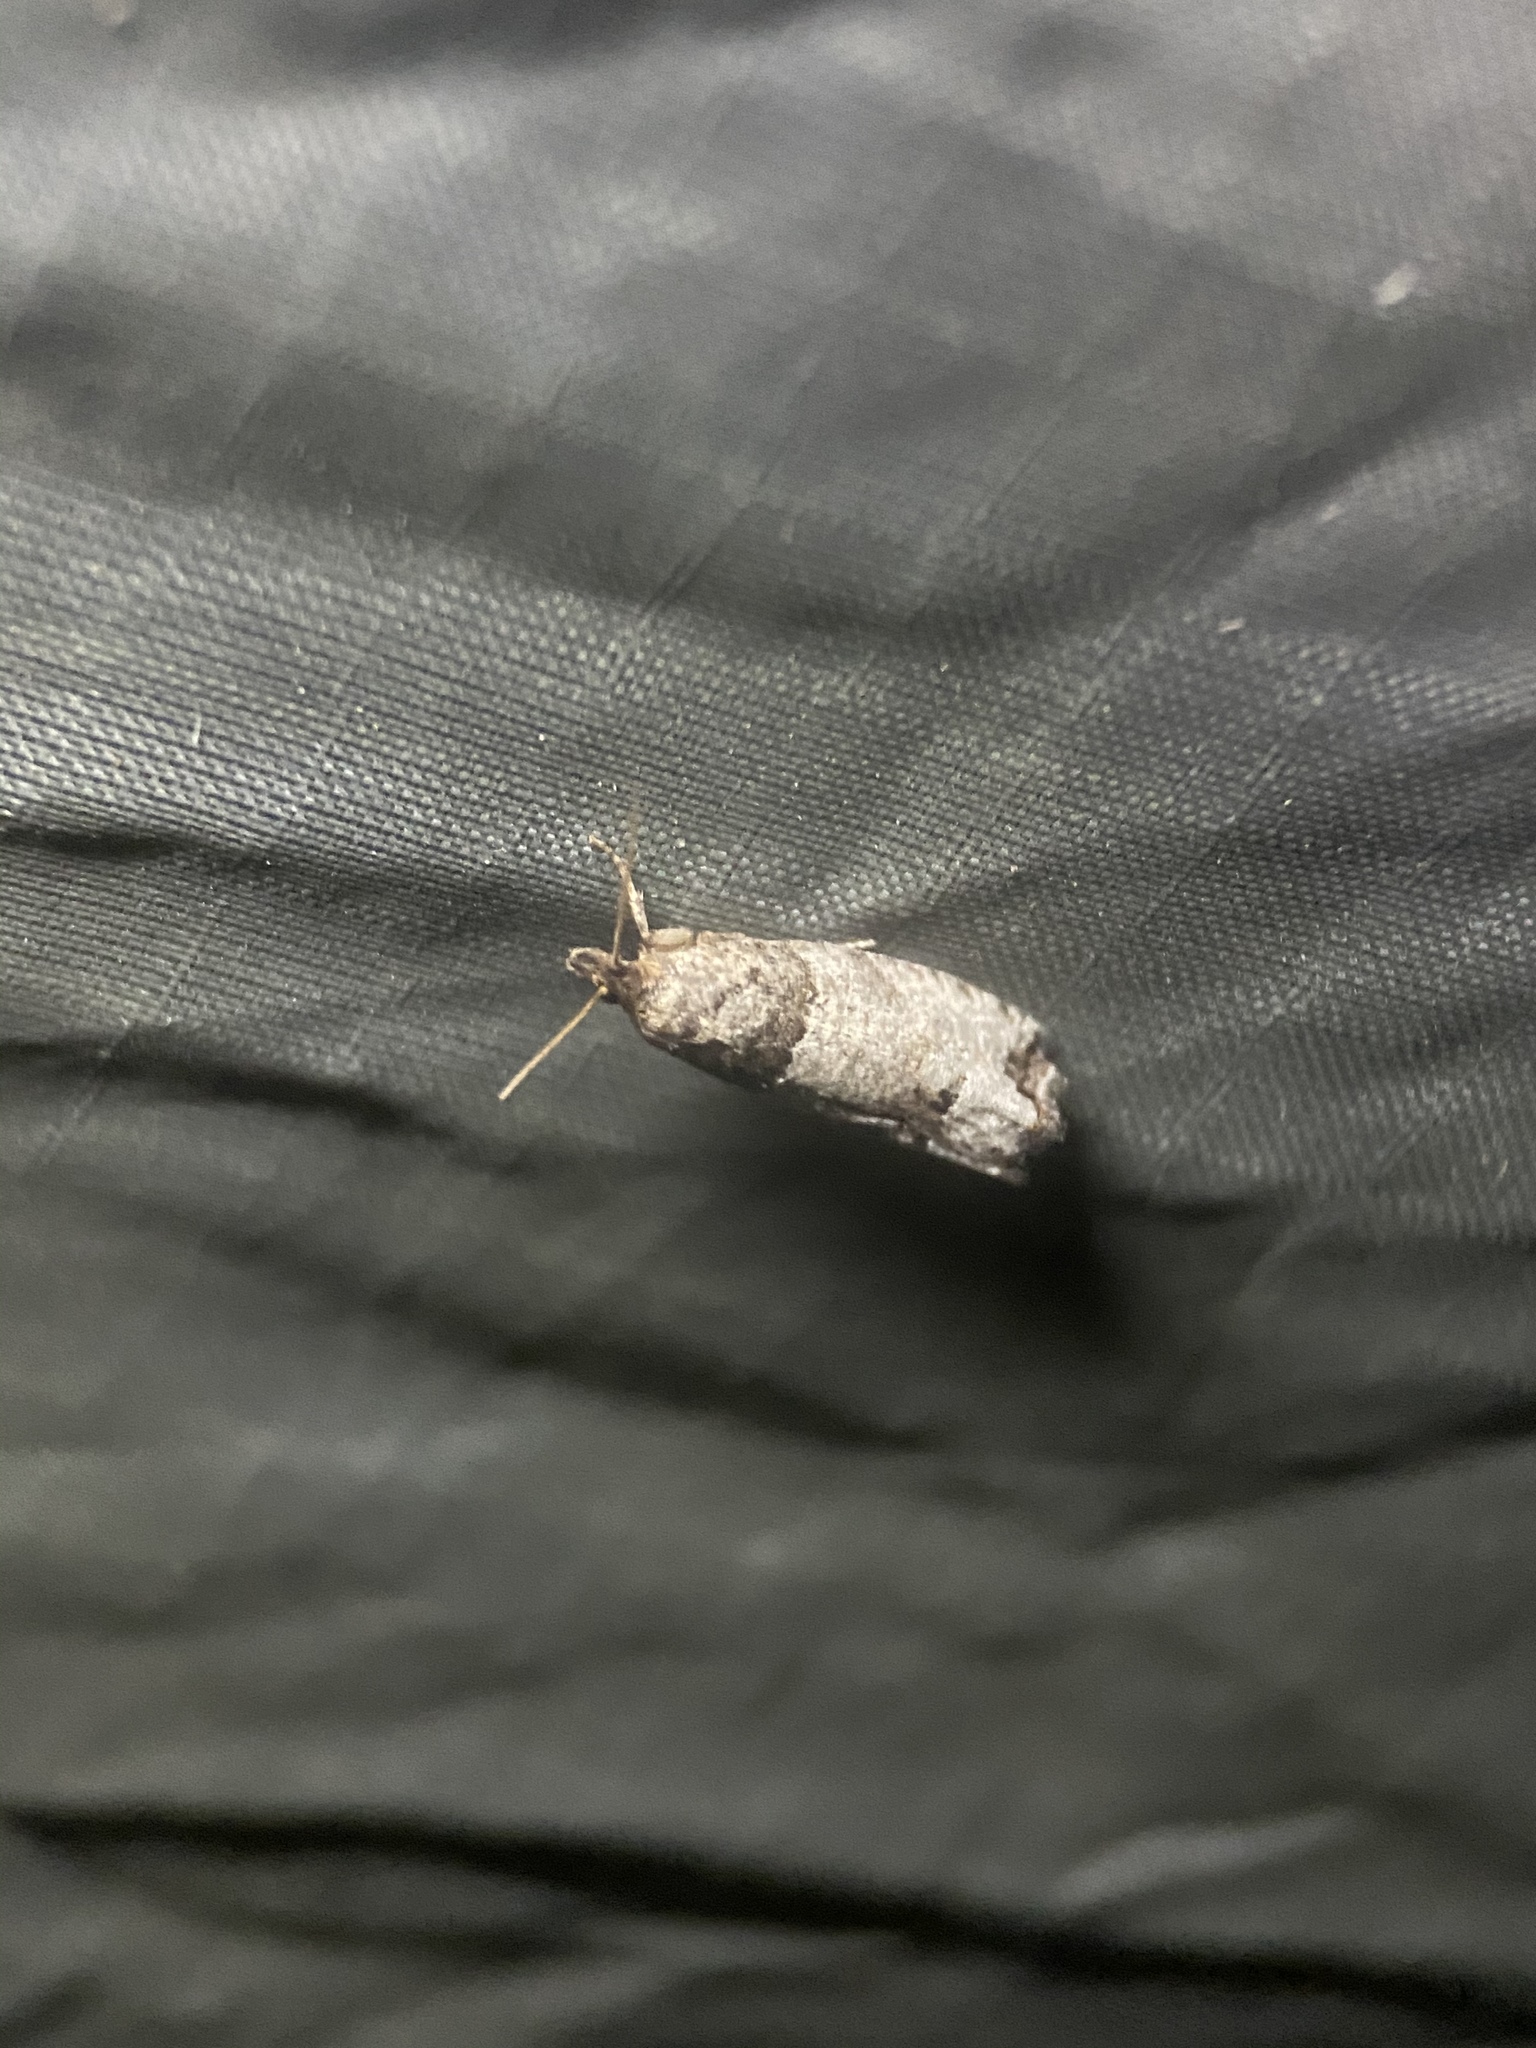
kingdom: Animalia
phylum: Arthropoda
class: Insecta
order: Lepidoptera
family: Tortricidae
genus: Notocelia
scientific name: Notocelia culminana
